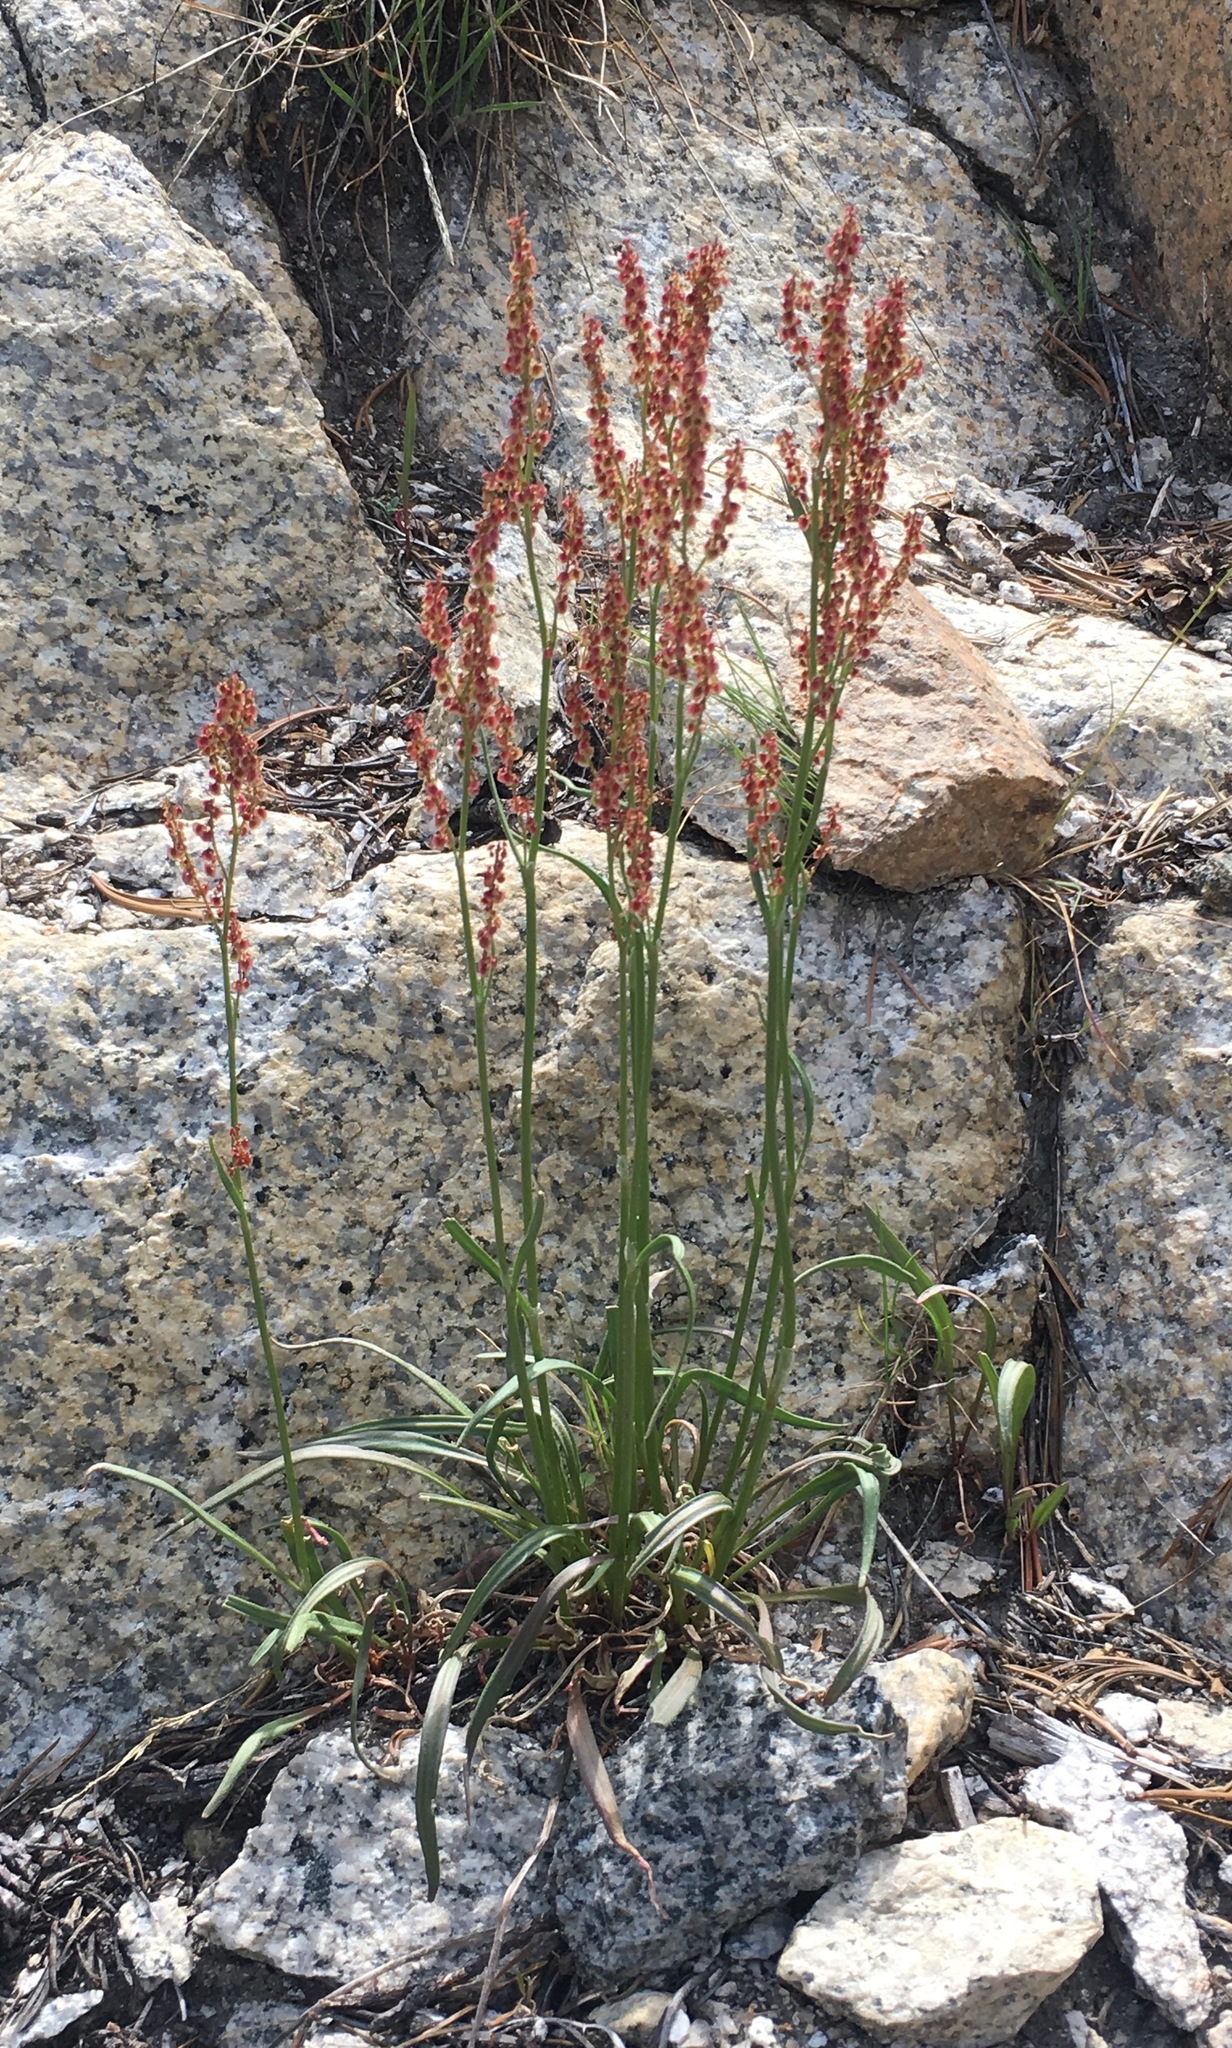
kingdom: Plantae
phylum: Tracheophyta
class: Magnoliopsida
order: Caryophyllales
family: Polygonaceae
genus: Rumex
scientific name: Rumex paucifolius
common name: Alpine sheep sorrel
